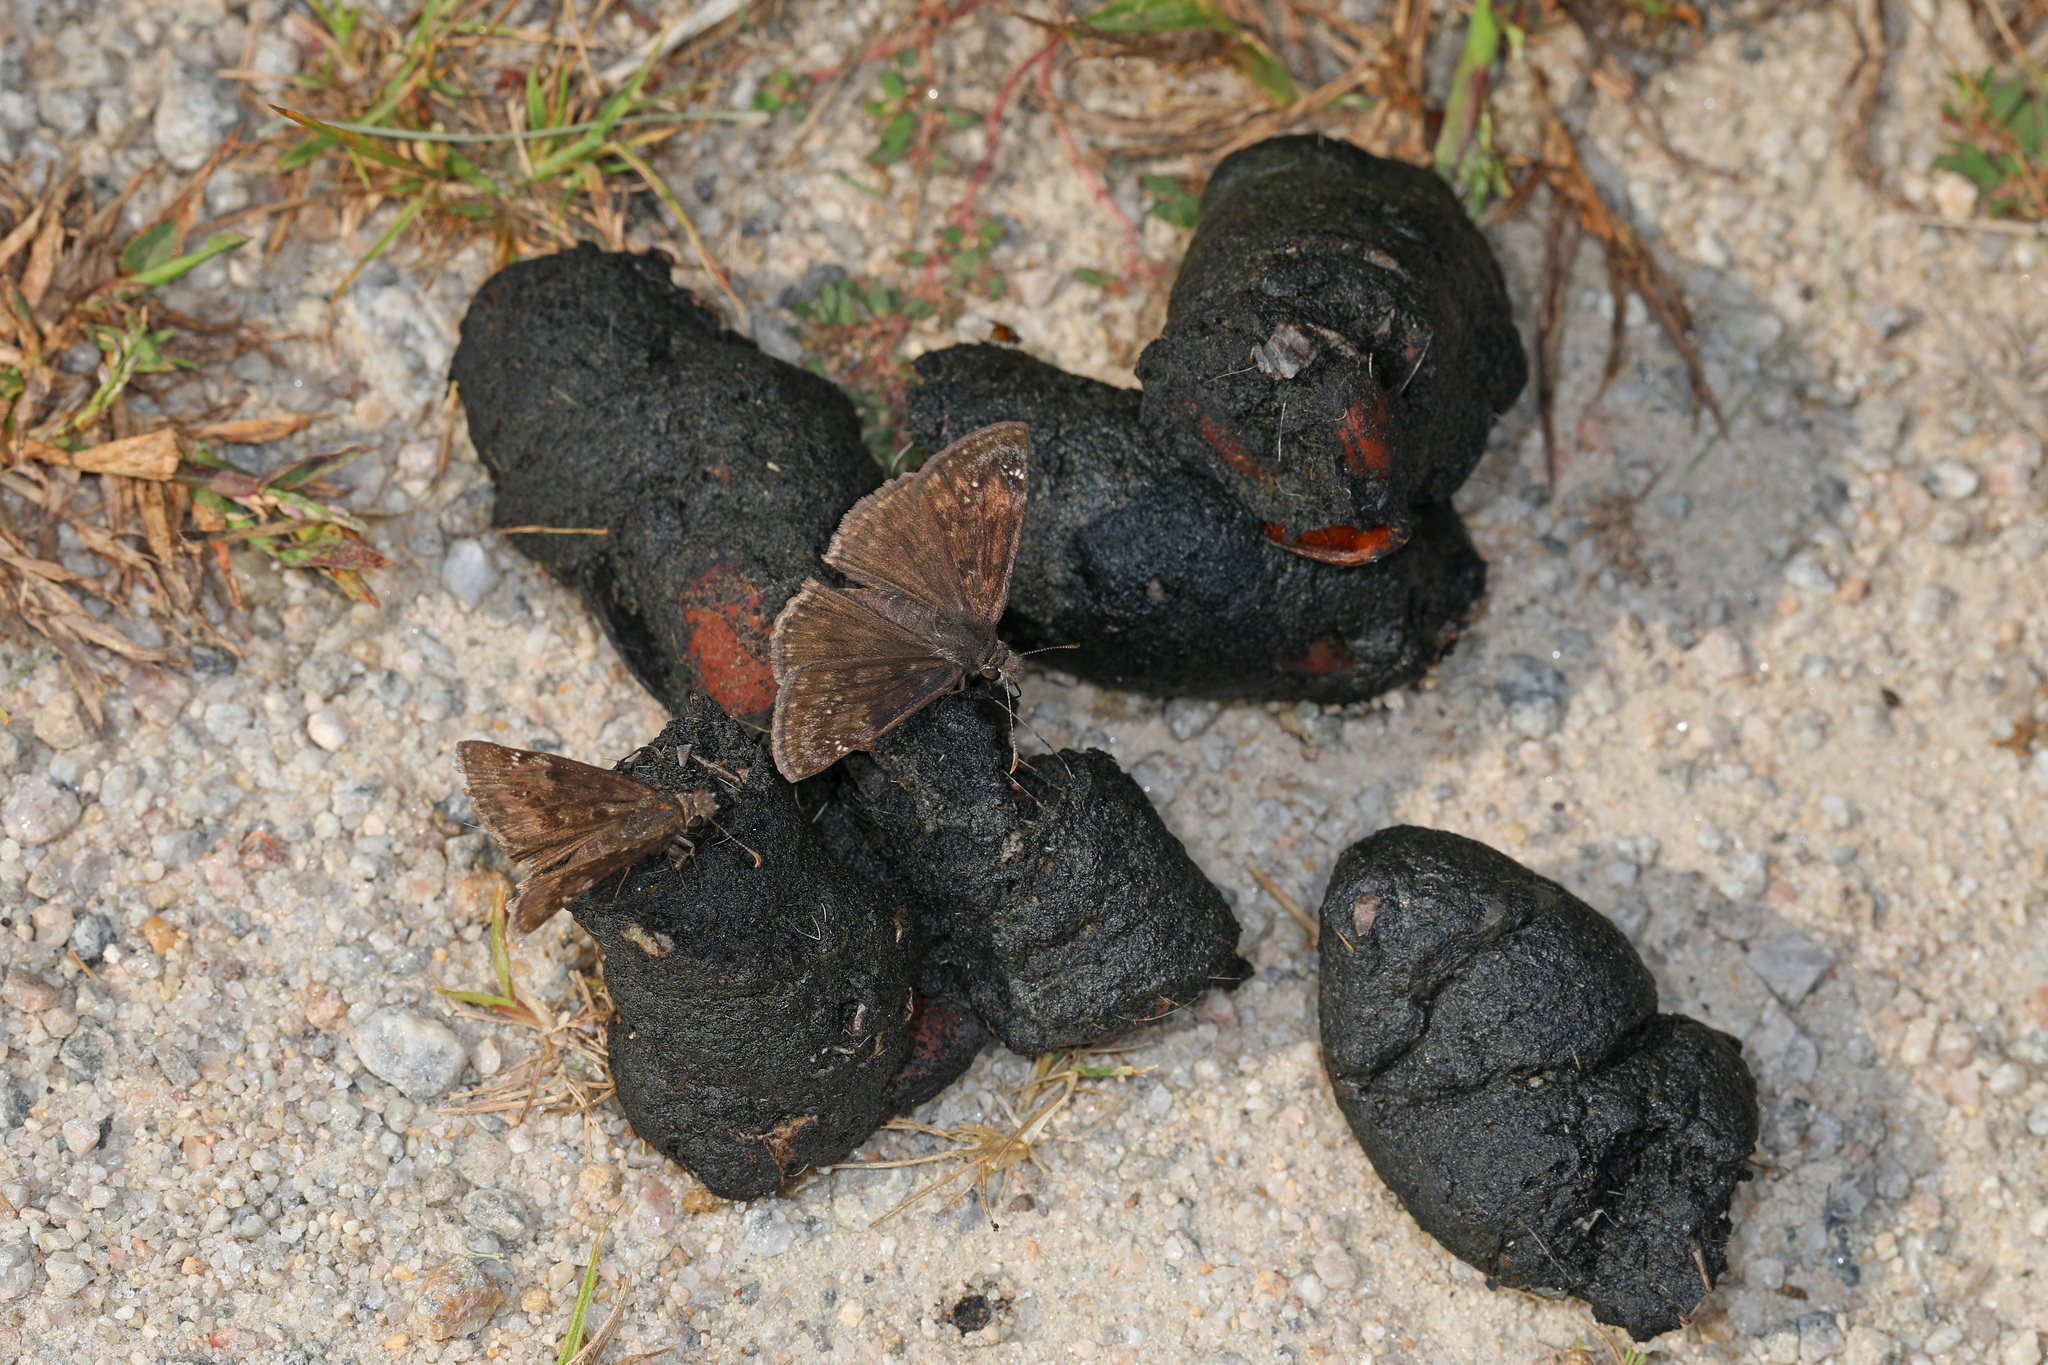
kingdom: Animalia
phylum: Arthropoda
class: Insecta
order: Lepidoptera
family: Hesperiidae
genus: Erynnis
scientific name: Erynnis baptisiae
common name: Wild indigo duskywing
